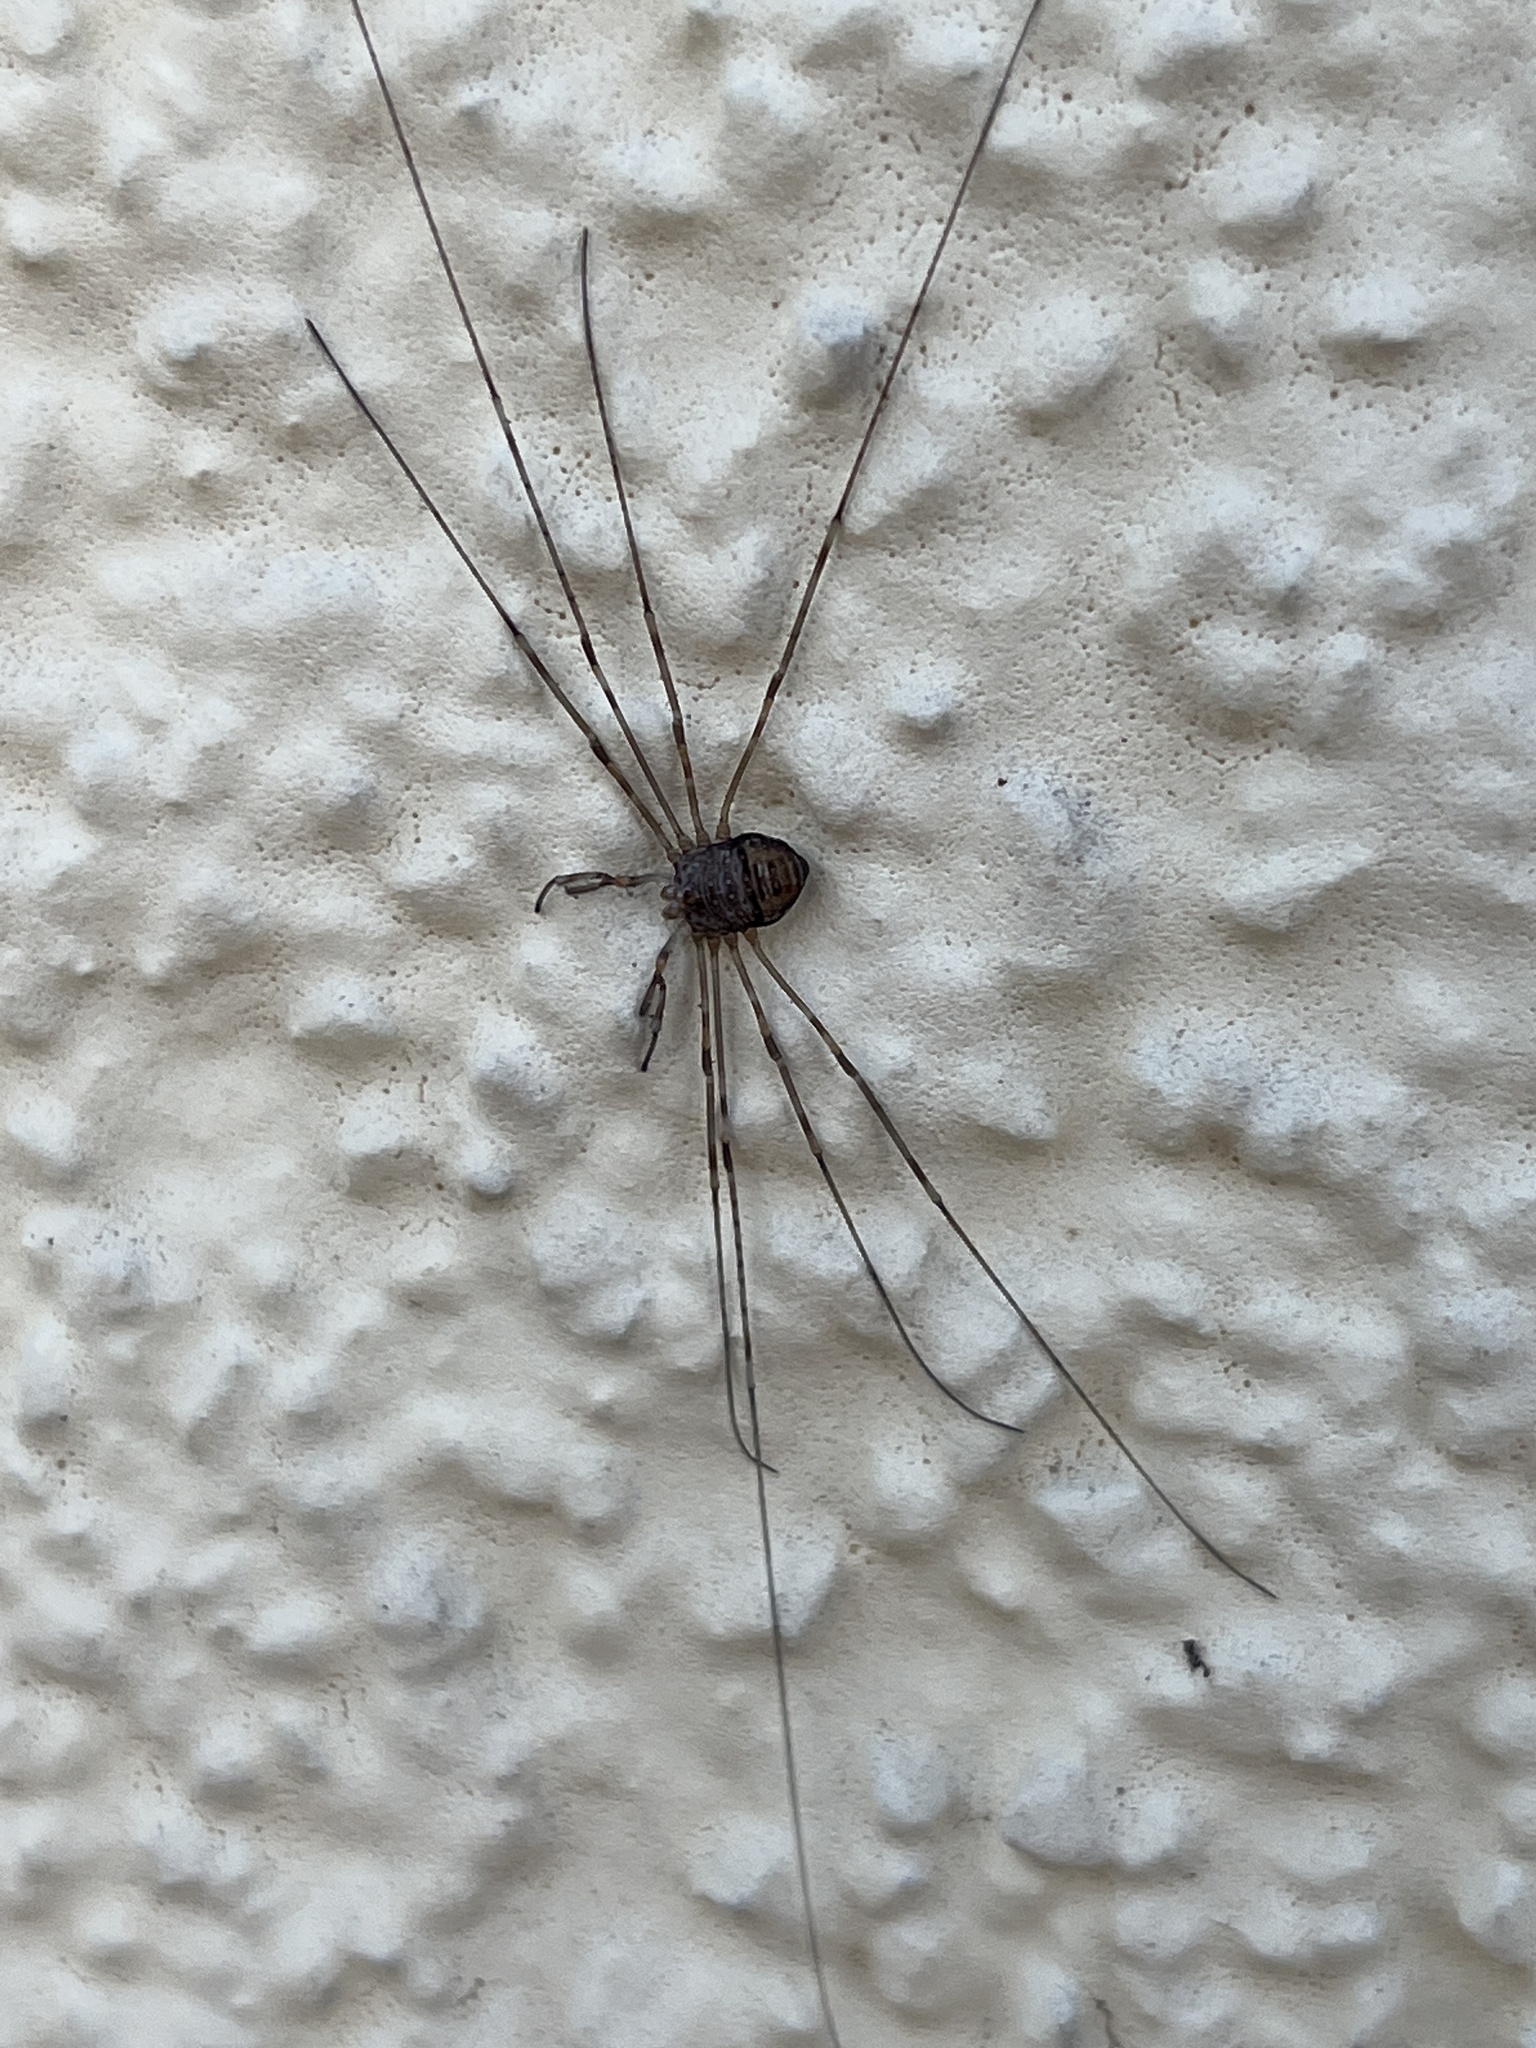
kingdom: Animalia
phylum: Arthropoda
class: Arachnida
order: Opiliones
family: Phalangiidae
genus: Dicranopalpus
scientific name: Dicranopalpus ramosus
